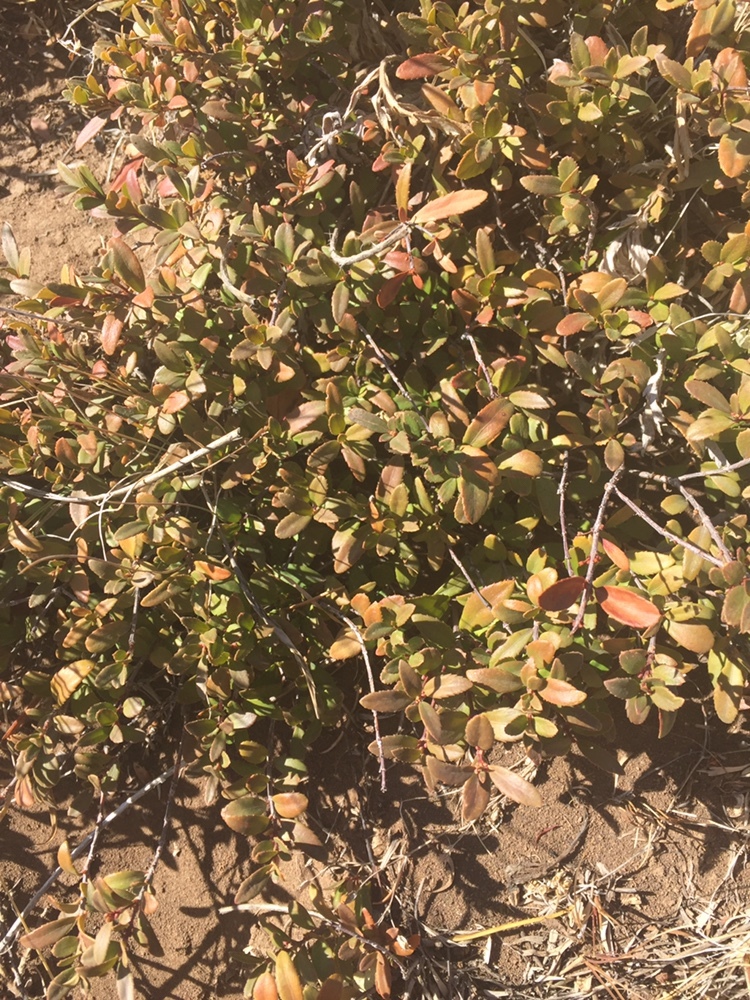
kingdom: Plantae
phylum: Tracheophyta
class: Magnoliopsida
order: Celastrales
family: Celastraceae
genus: Paxistima
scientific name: Paxistima myrsinites
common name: Mountain-lover
